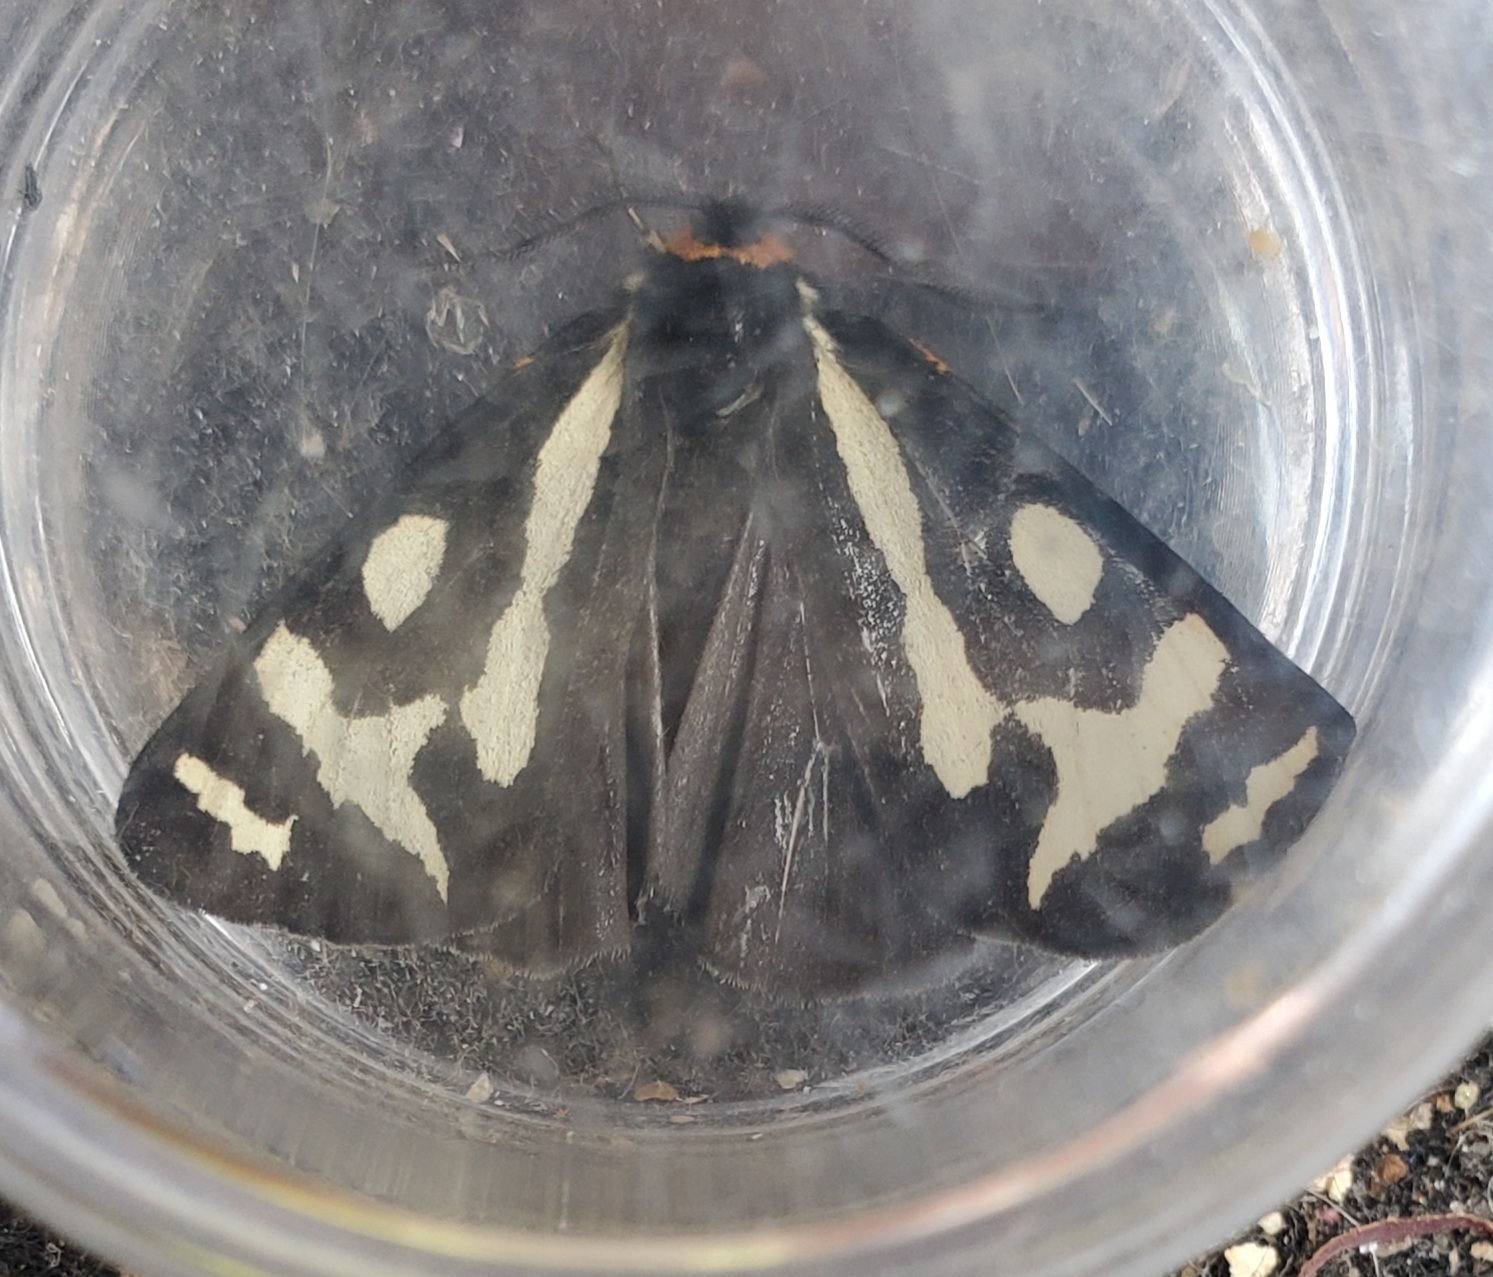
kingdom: Animalia
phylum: Arthropoda
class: Insecta
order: Lepidoptera
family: Erebidae
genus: Parasemia
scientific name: Parasemia plantaginis
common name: Wood tiger
